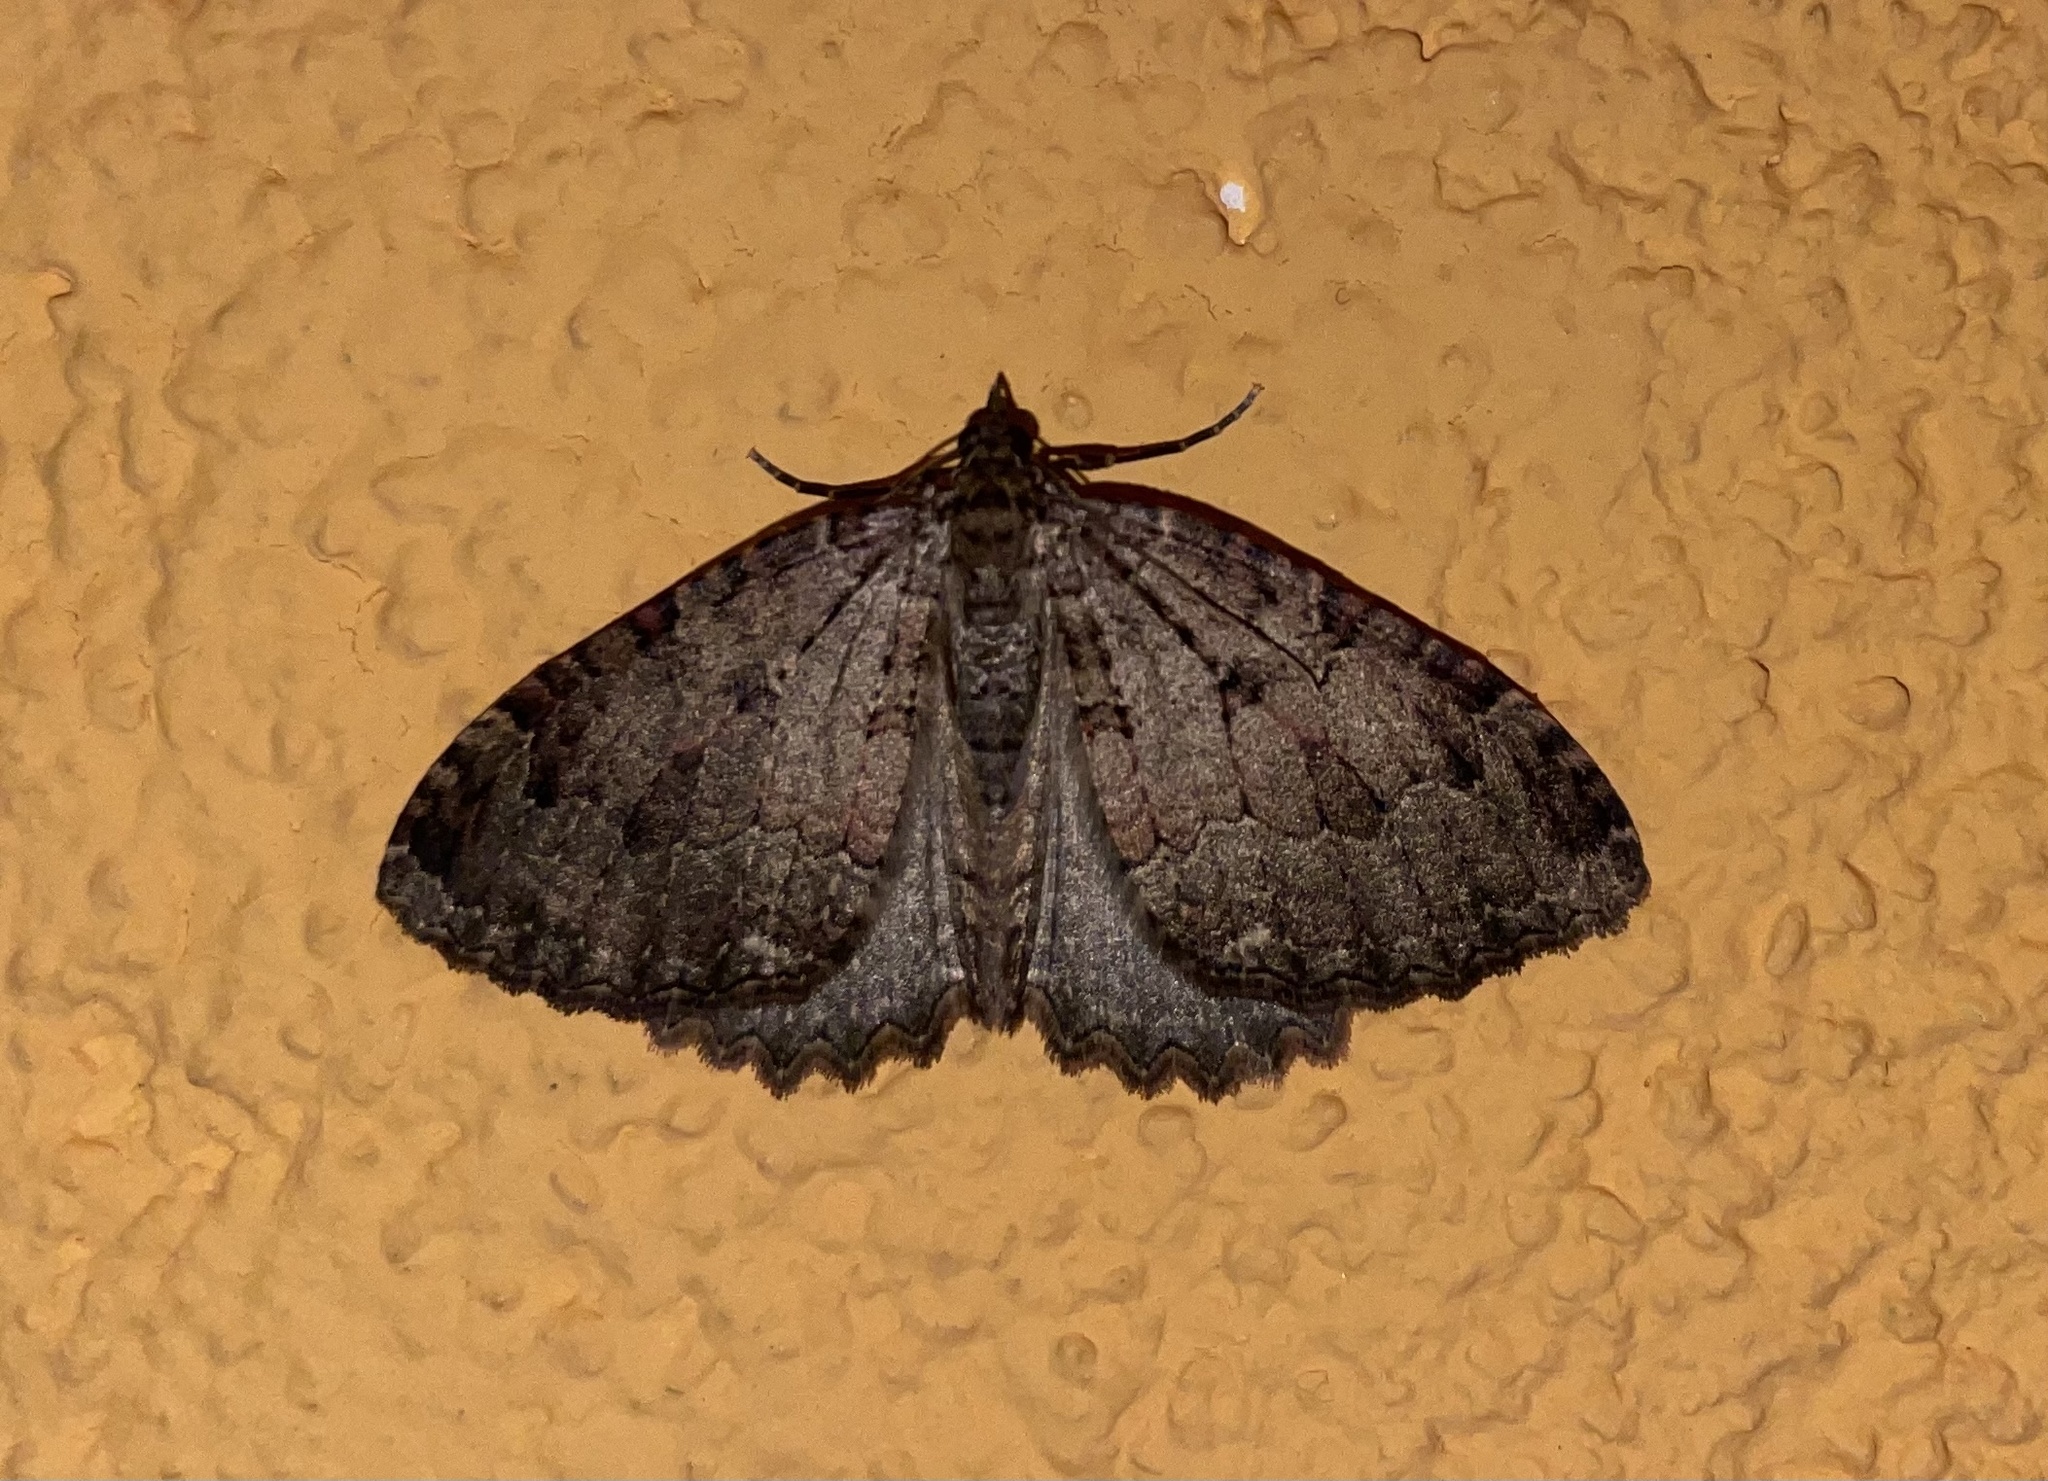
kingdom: Animalia
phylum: Arthropoda
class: Insecta
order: Lepidoptera
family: Geometridae
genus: Triphosa
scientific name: Triphosa dubitata
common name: Tissue
